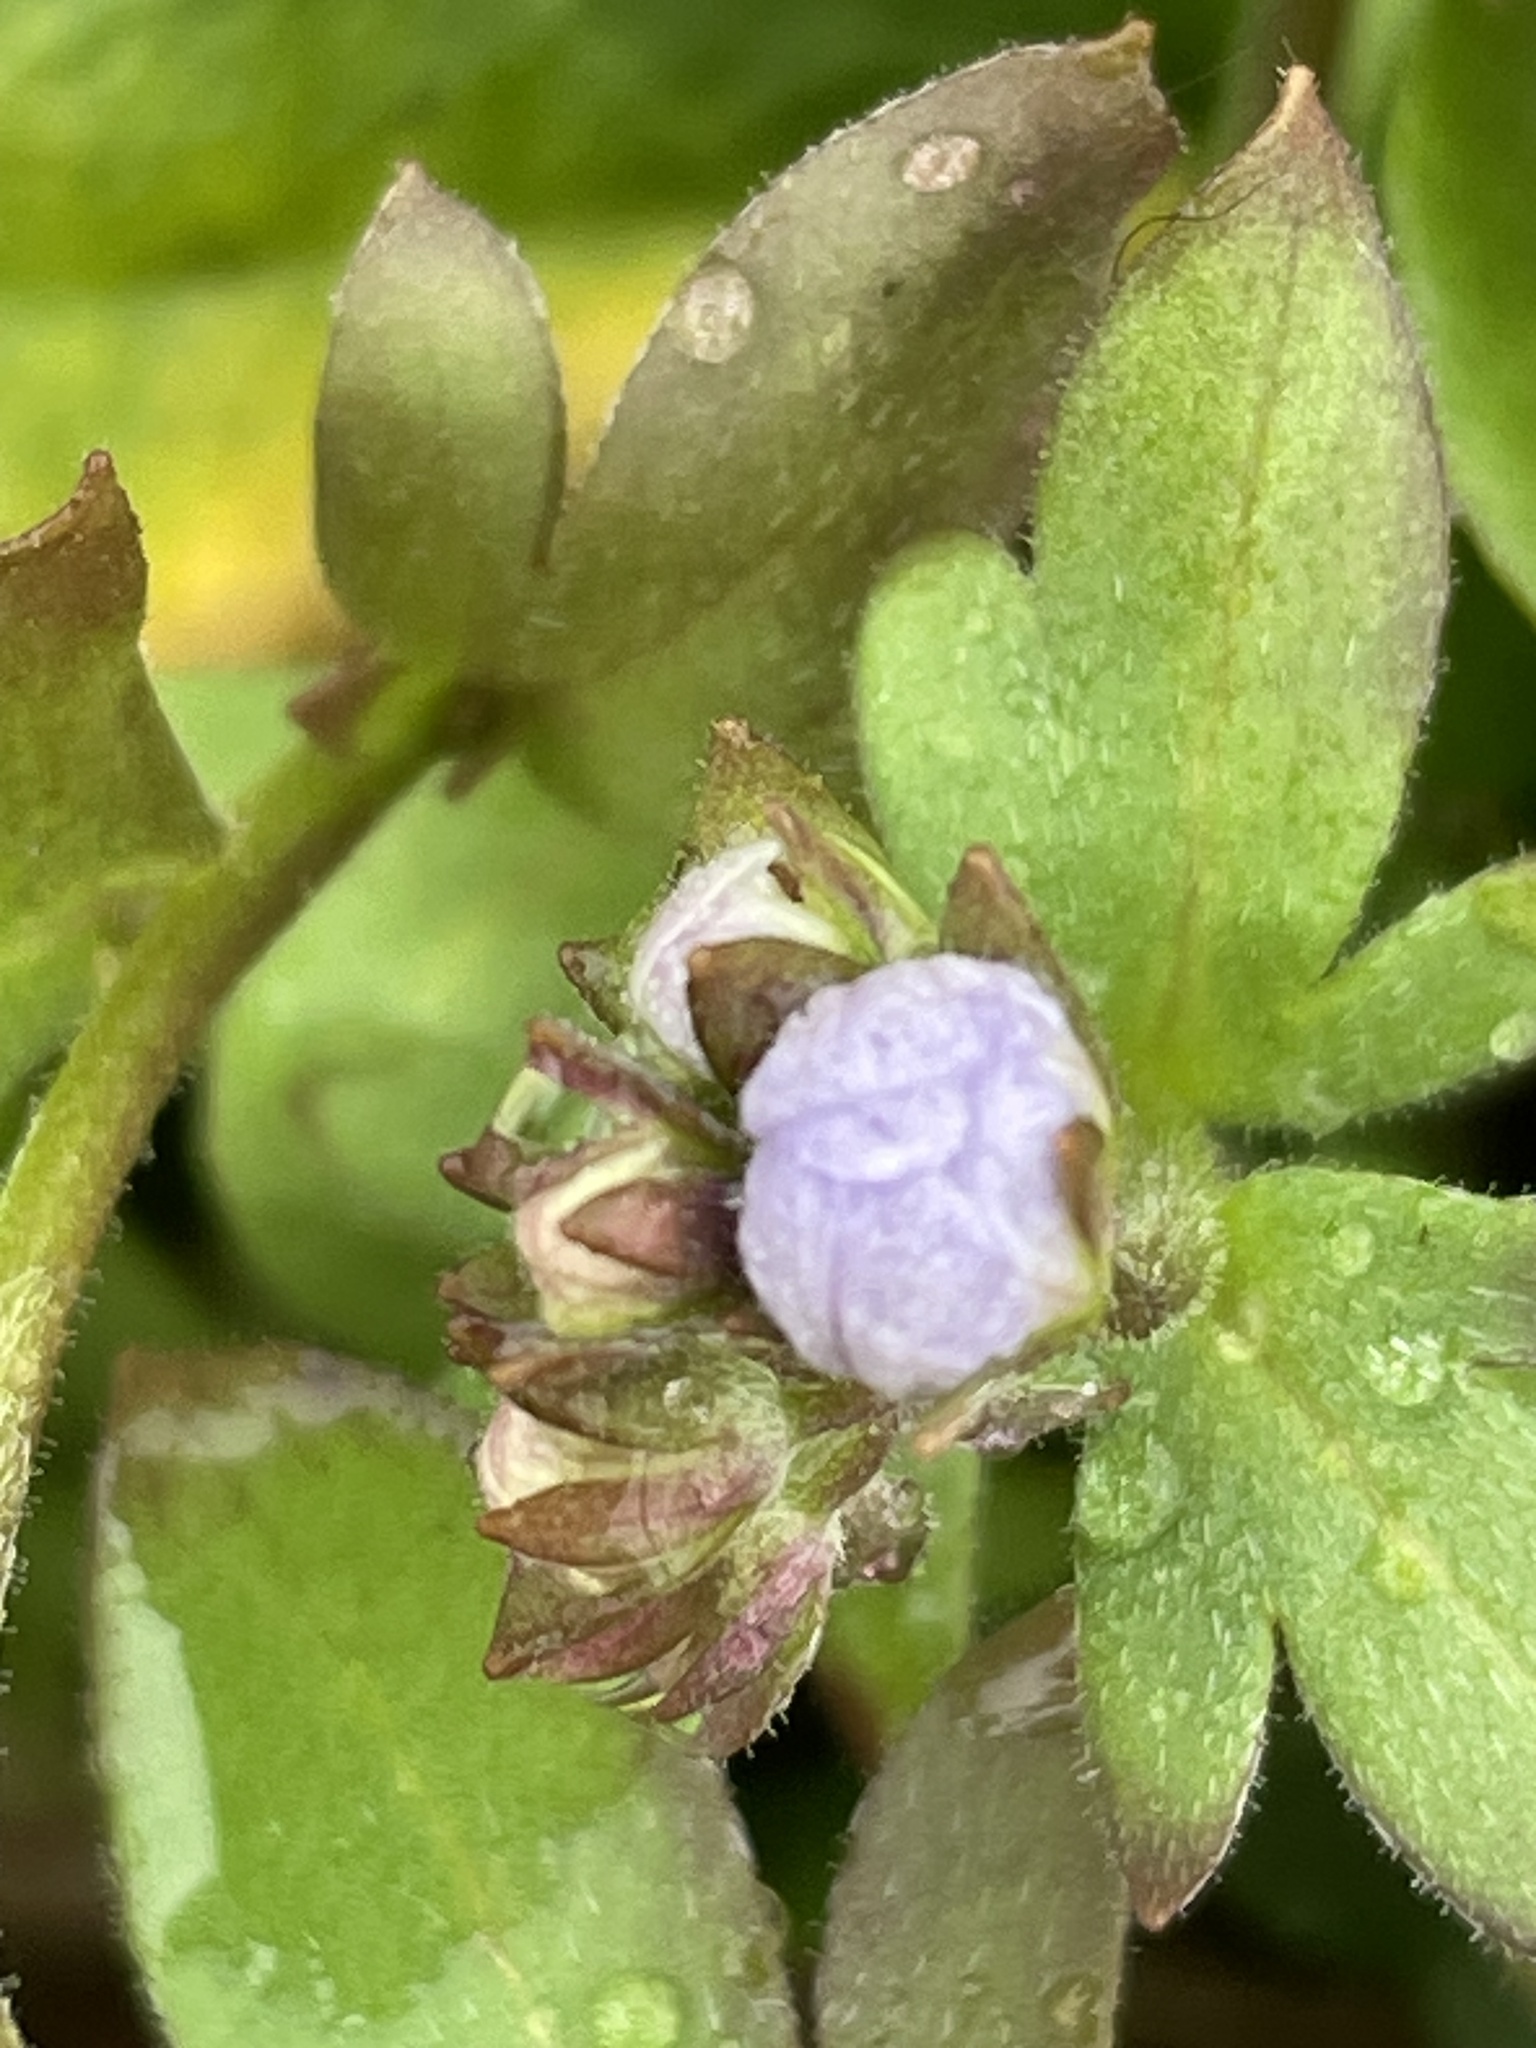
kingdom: Plantae
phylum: Tracheophyta
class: Magnoliopsida
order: Boraginales
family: Hydrophyllaceae
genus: Phacelia
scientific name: Phacelia dubia
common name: Appalachian phacelia
